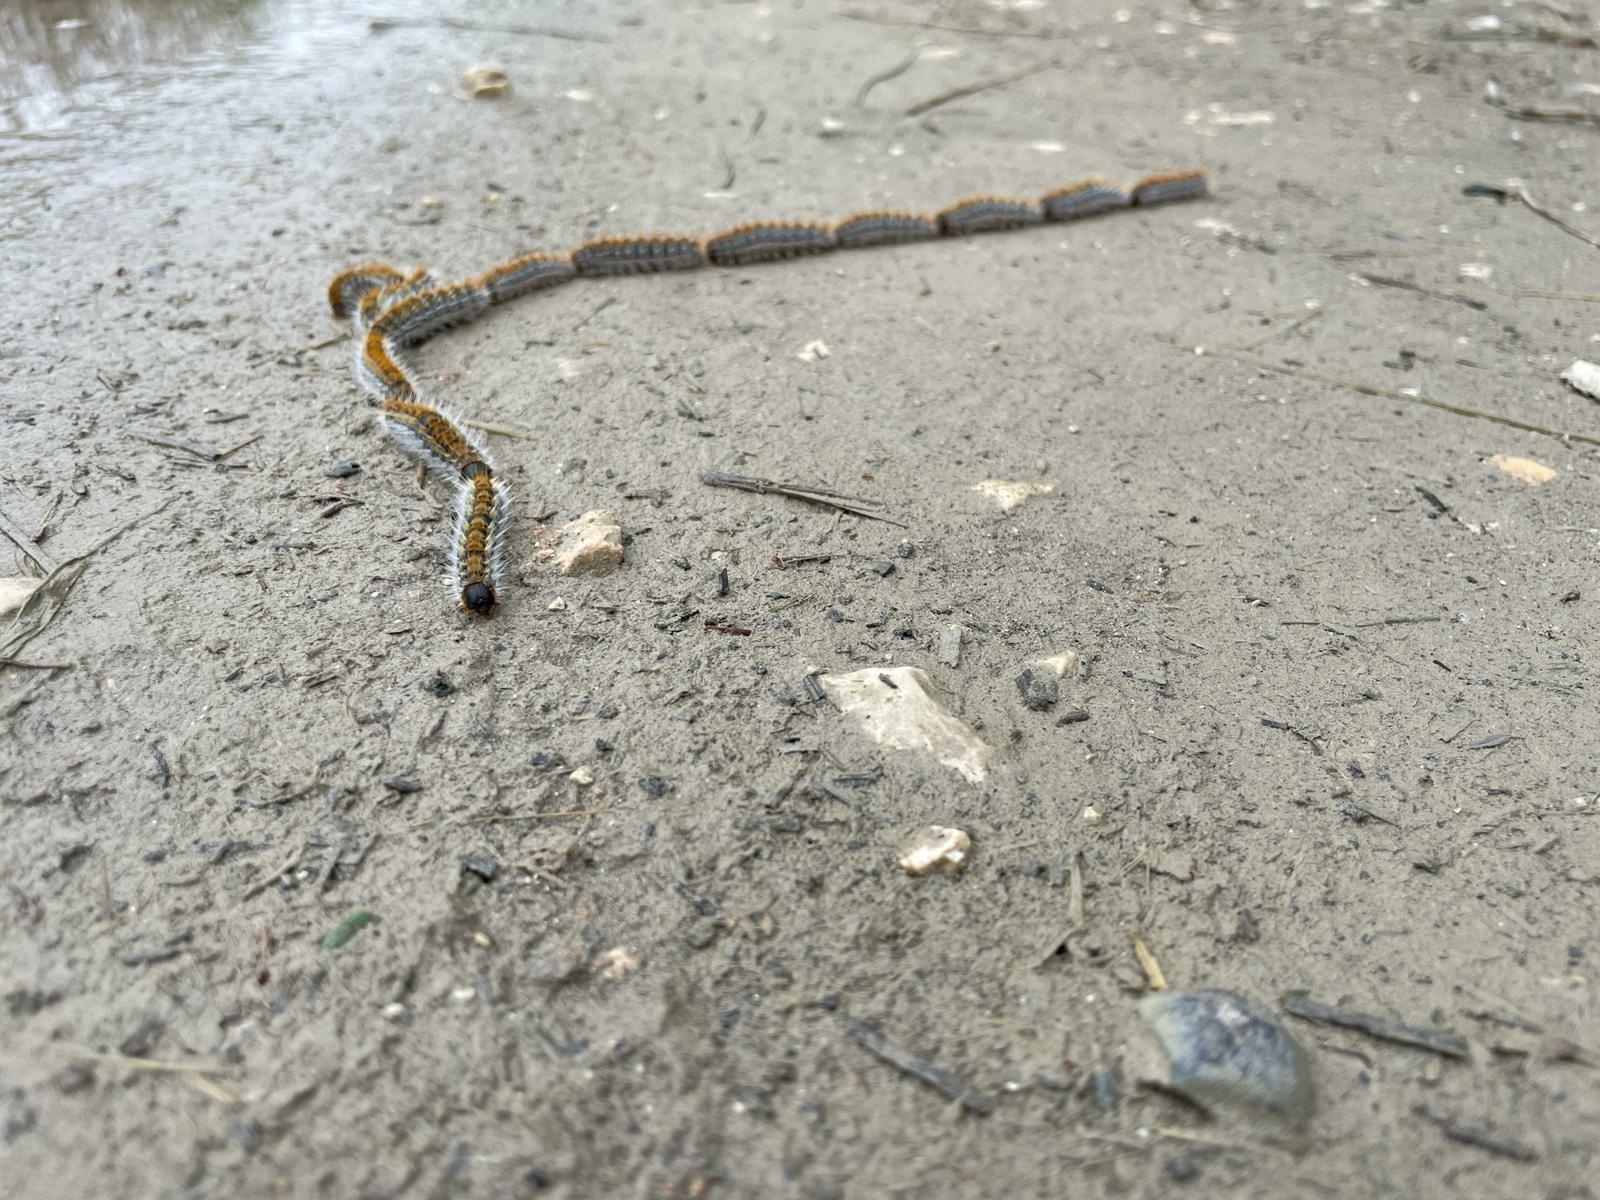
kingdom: Animalia
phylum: Arthropoda
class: Insecta
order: Lepidoptera
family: Notodontidae
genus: Thaumetopoea
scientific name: Thaumetopoea pityocampa
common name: Pine processionary
